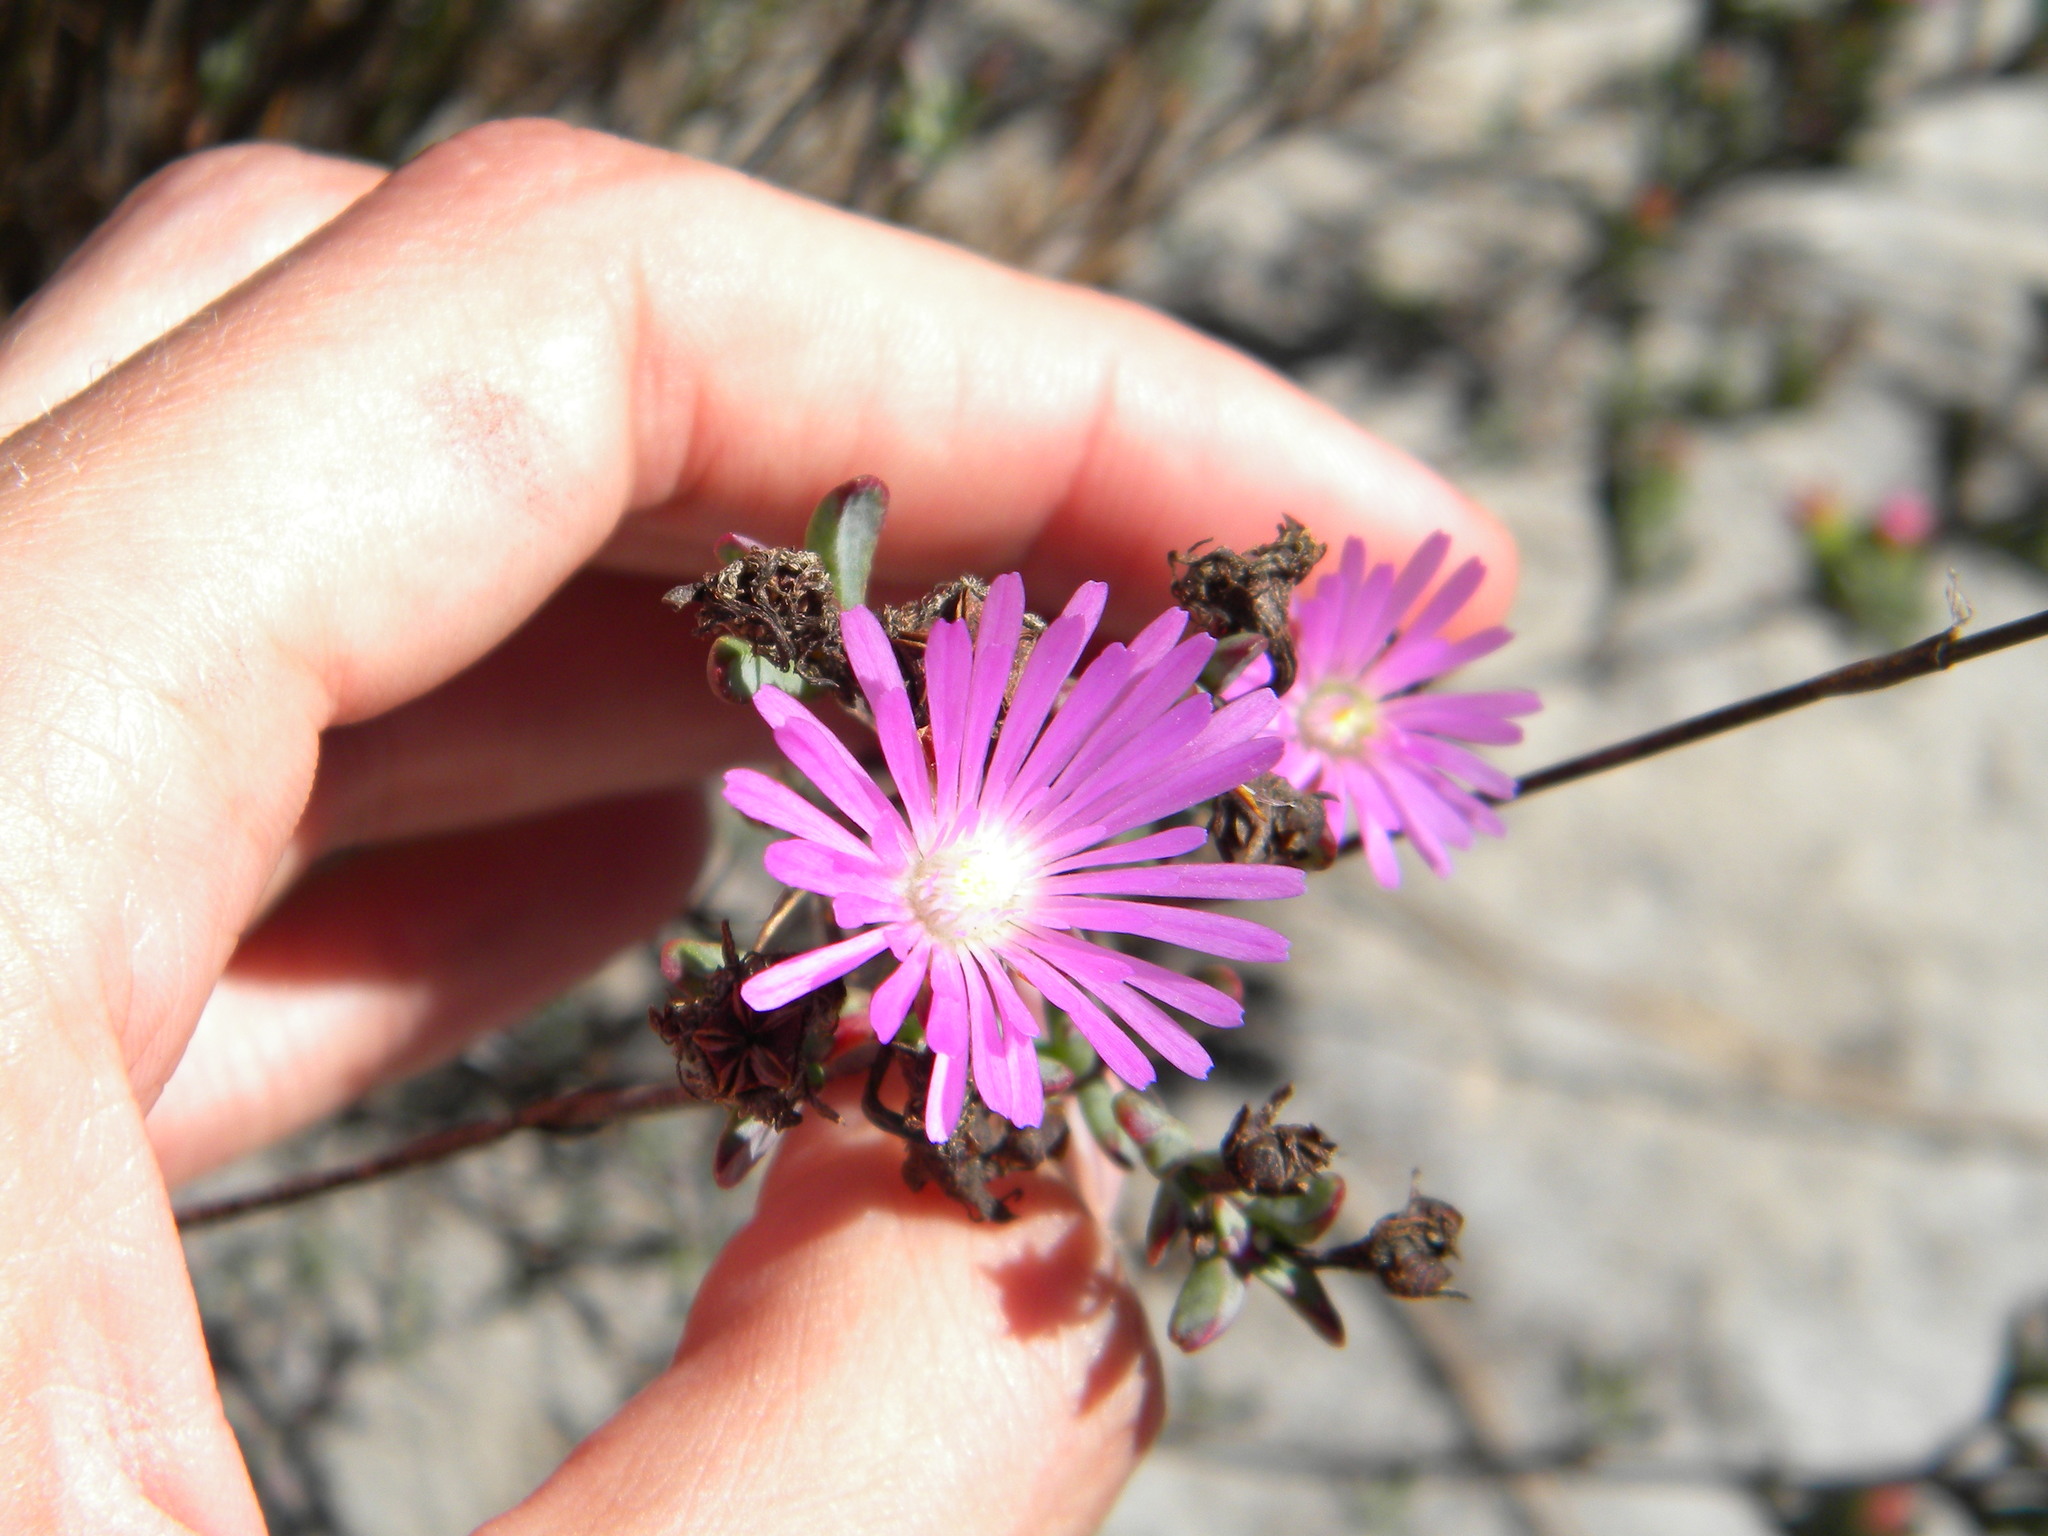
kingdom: Plantae
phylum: Tracheophyta
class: Magnoliopsida
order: Caryophyllales
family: Aizoaceae
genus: Lampranthus
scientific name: Lampranthus glomeratus
